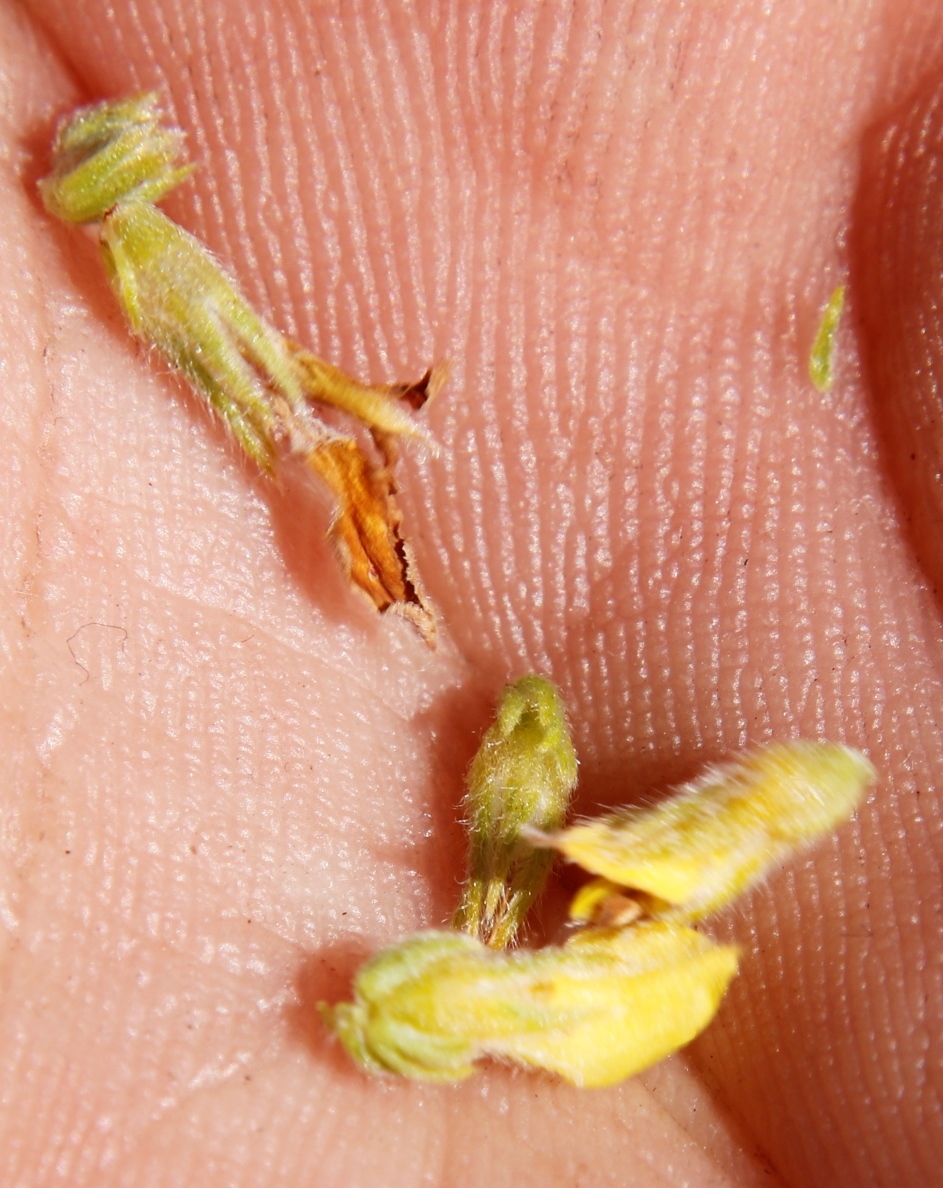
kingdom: Plantae
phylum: Tracheophyta
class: Magnoliopsida
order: Fabales
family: Fabaceae
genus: Aspalathus
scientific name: Aspalathus ericifolia
